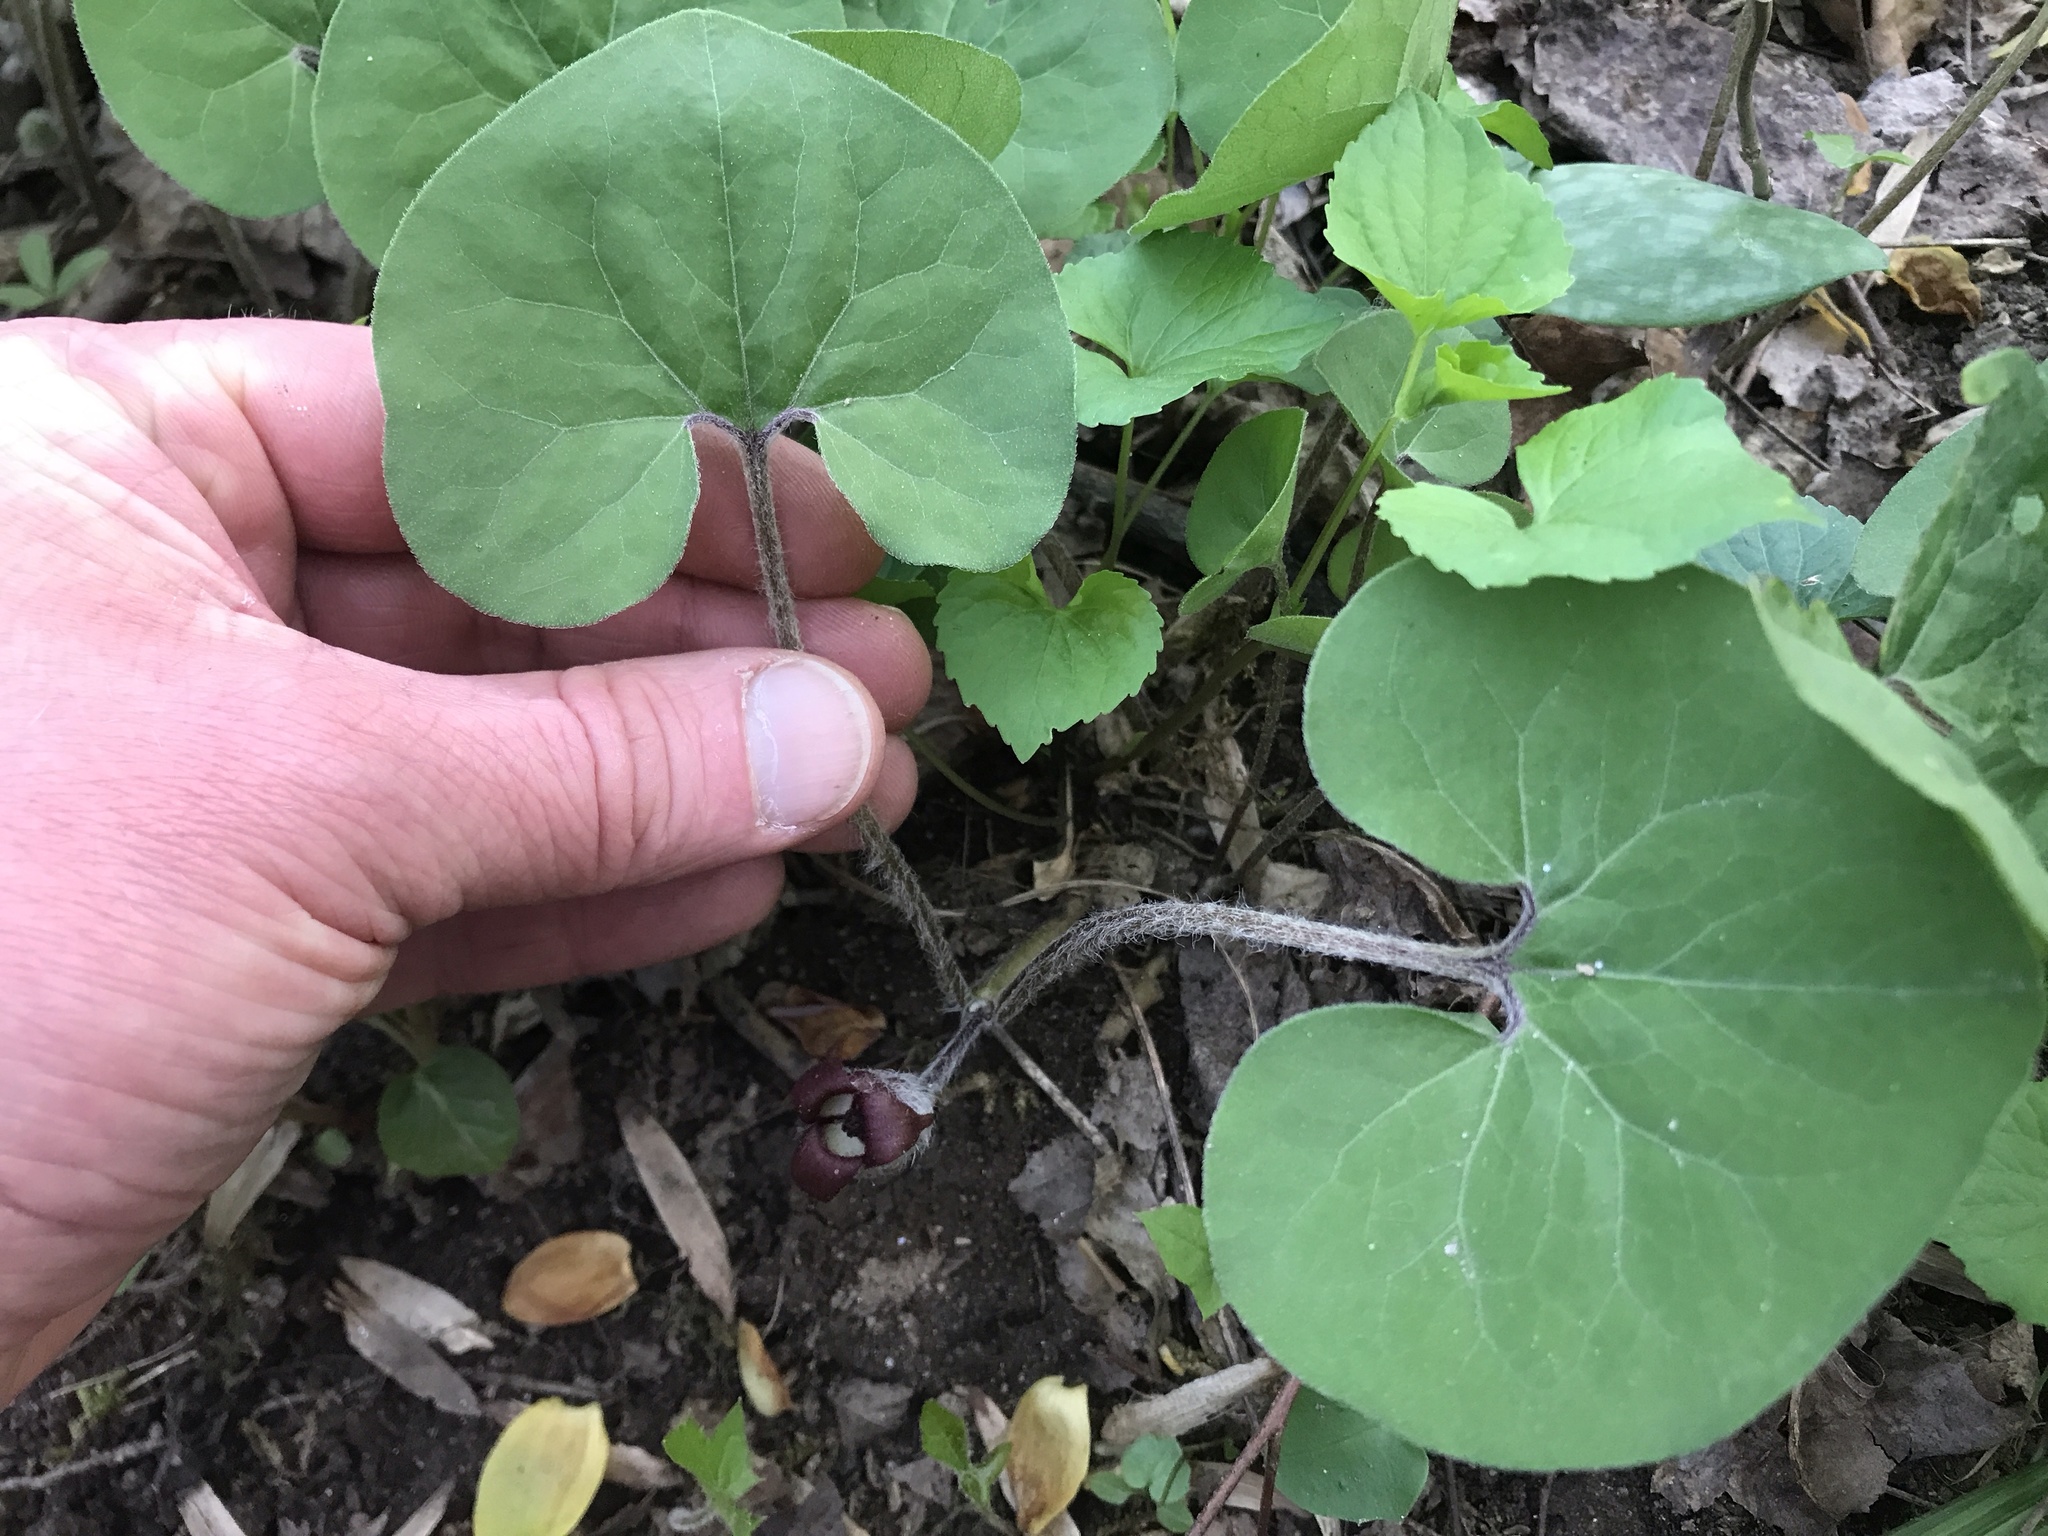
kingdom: Plantae
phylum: Tracheophyta
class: Magnoliopsida
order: Piperales
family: Aristolochiaceae
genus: Asarum
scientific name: Asarum canadense
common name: Wild ginger
